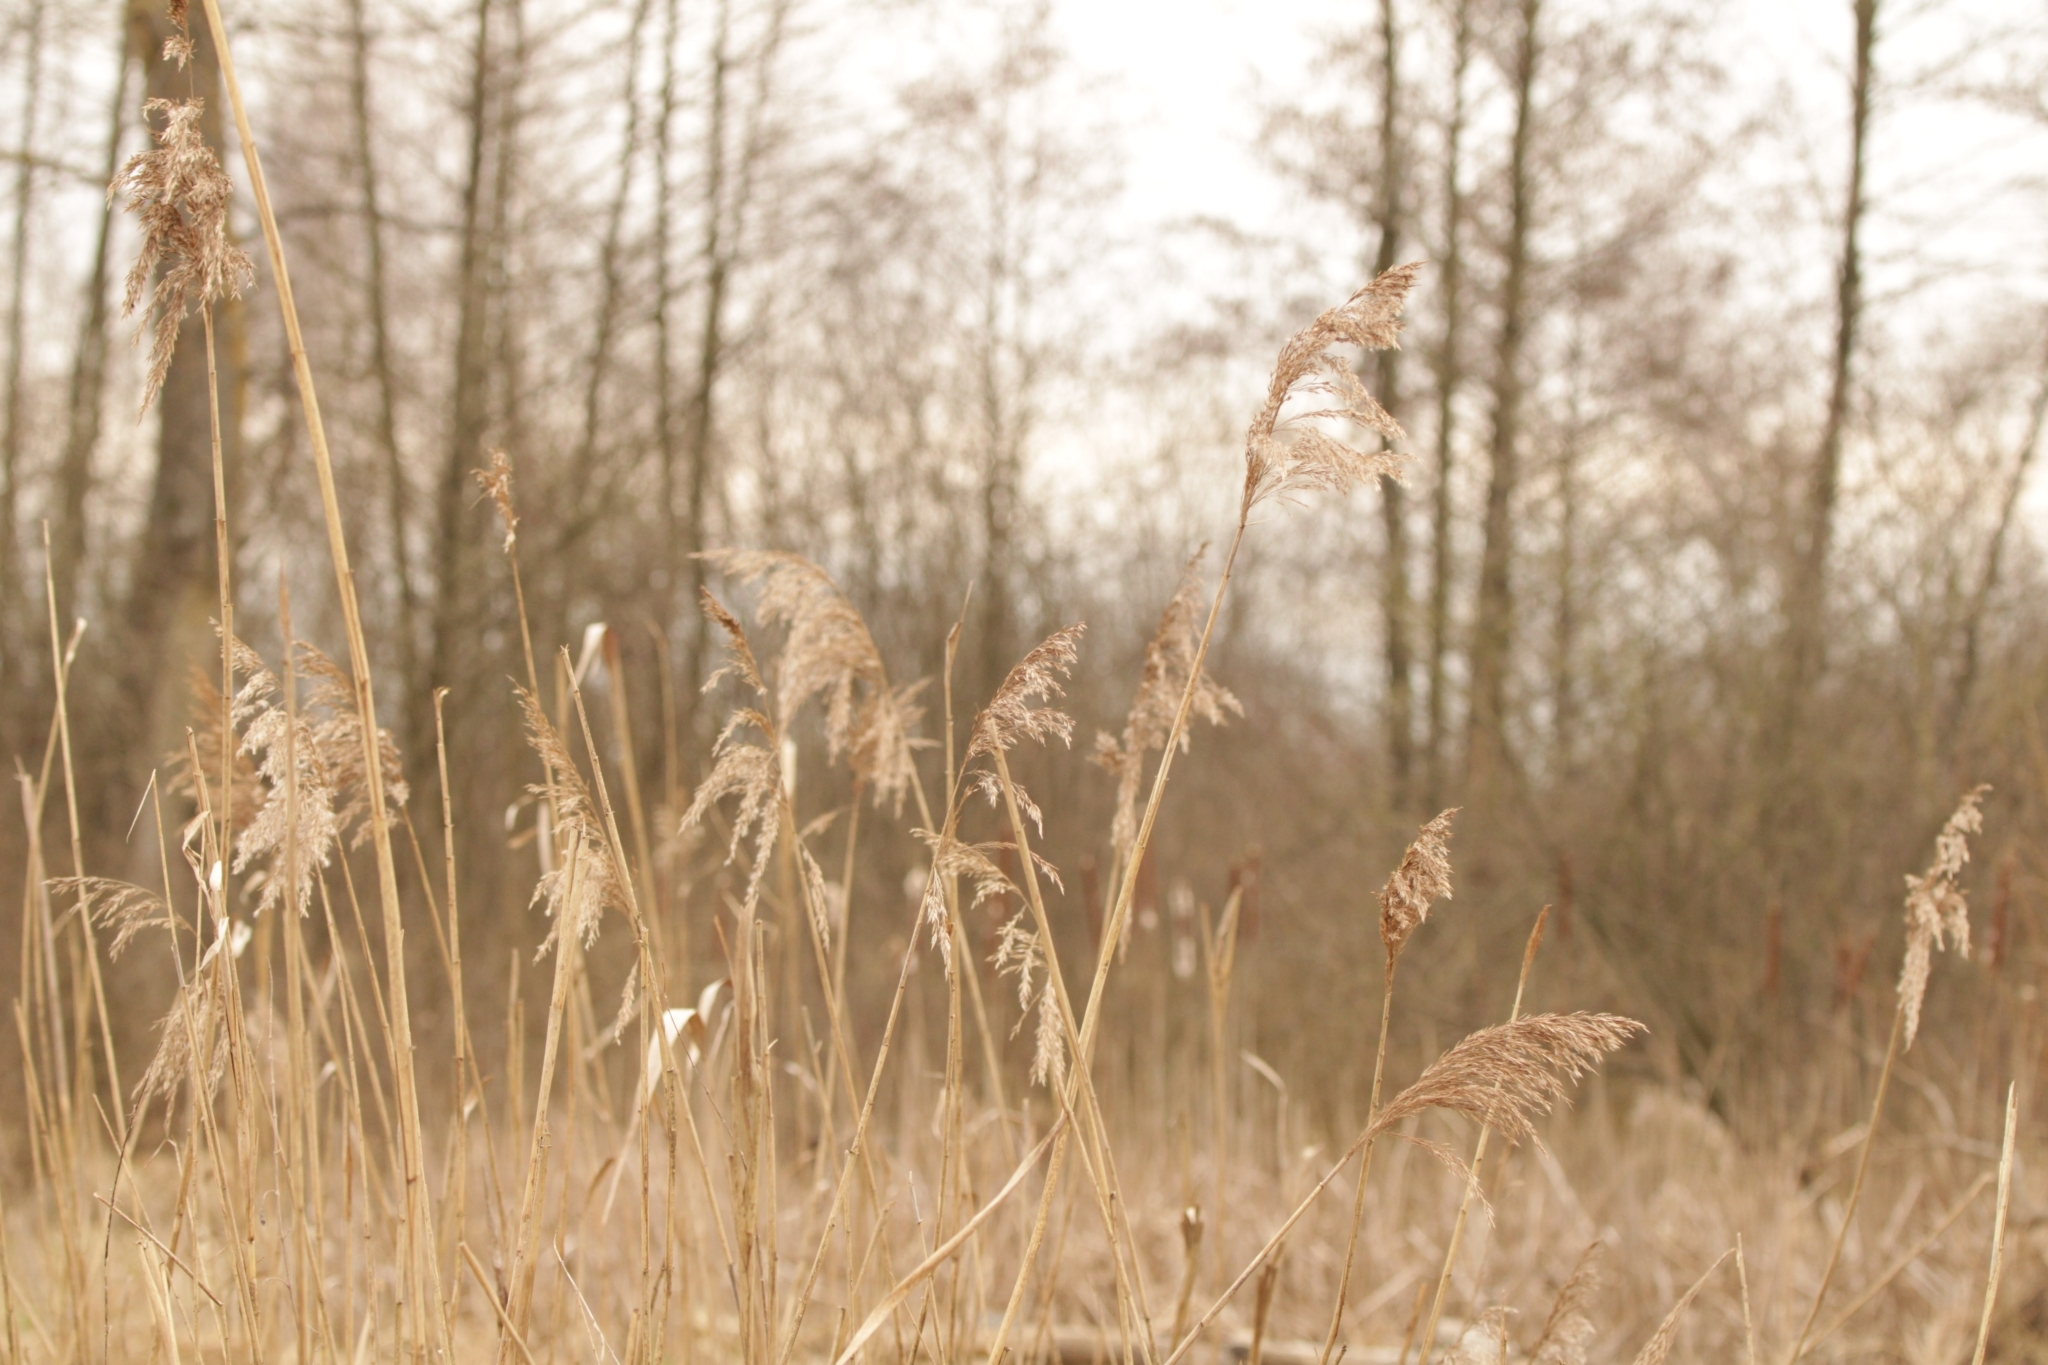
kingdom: Plantae
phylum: Tracheophyta
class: Liliopsida
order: Poales
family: Poaceae
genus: Phragmites
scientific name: Phragmites australis
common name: Common reed
